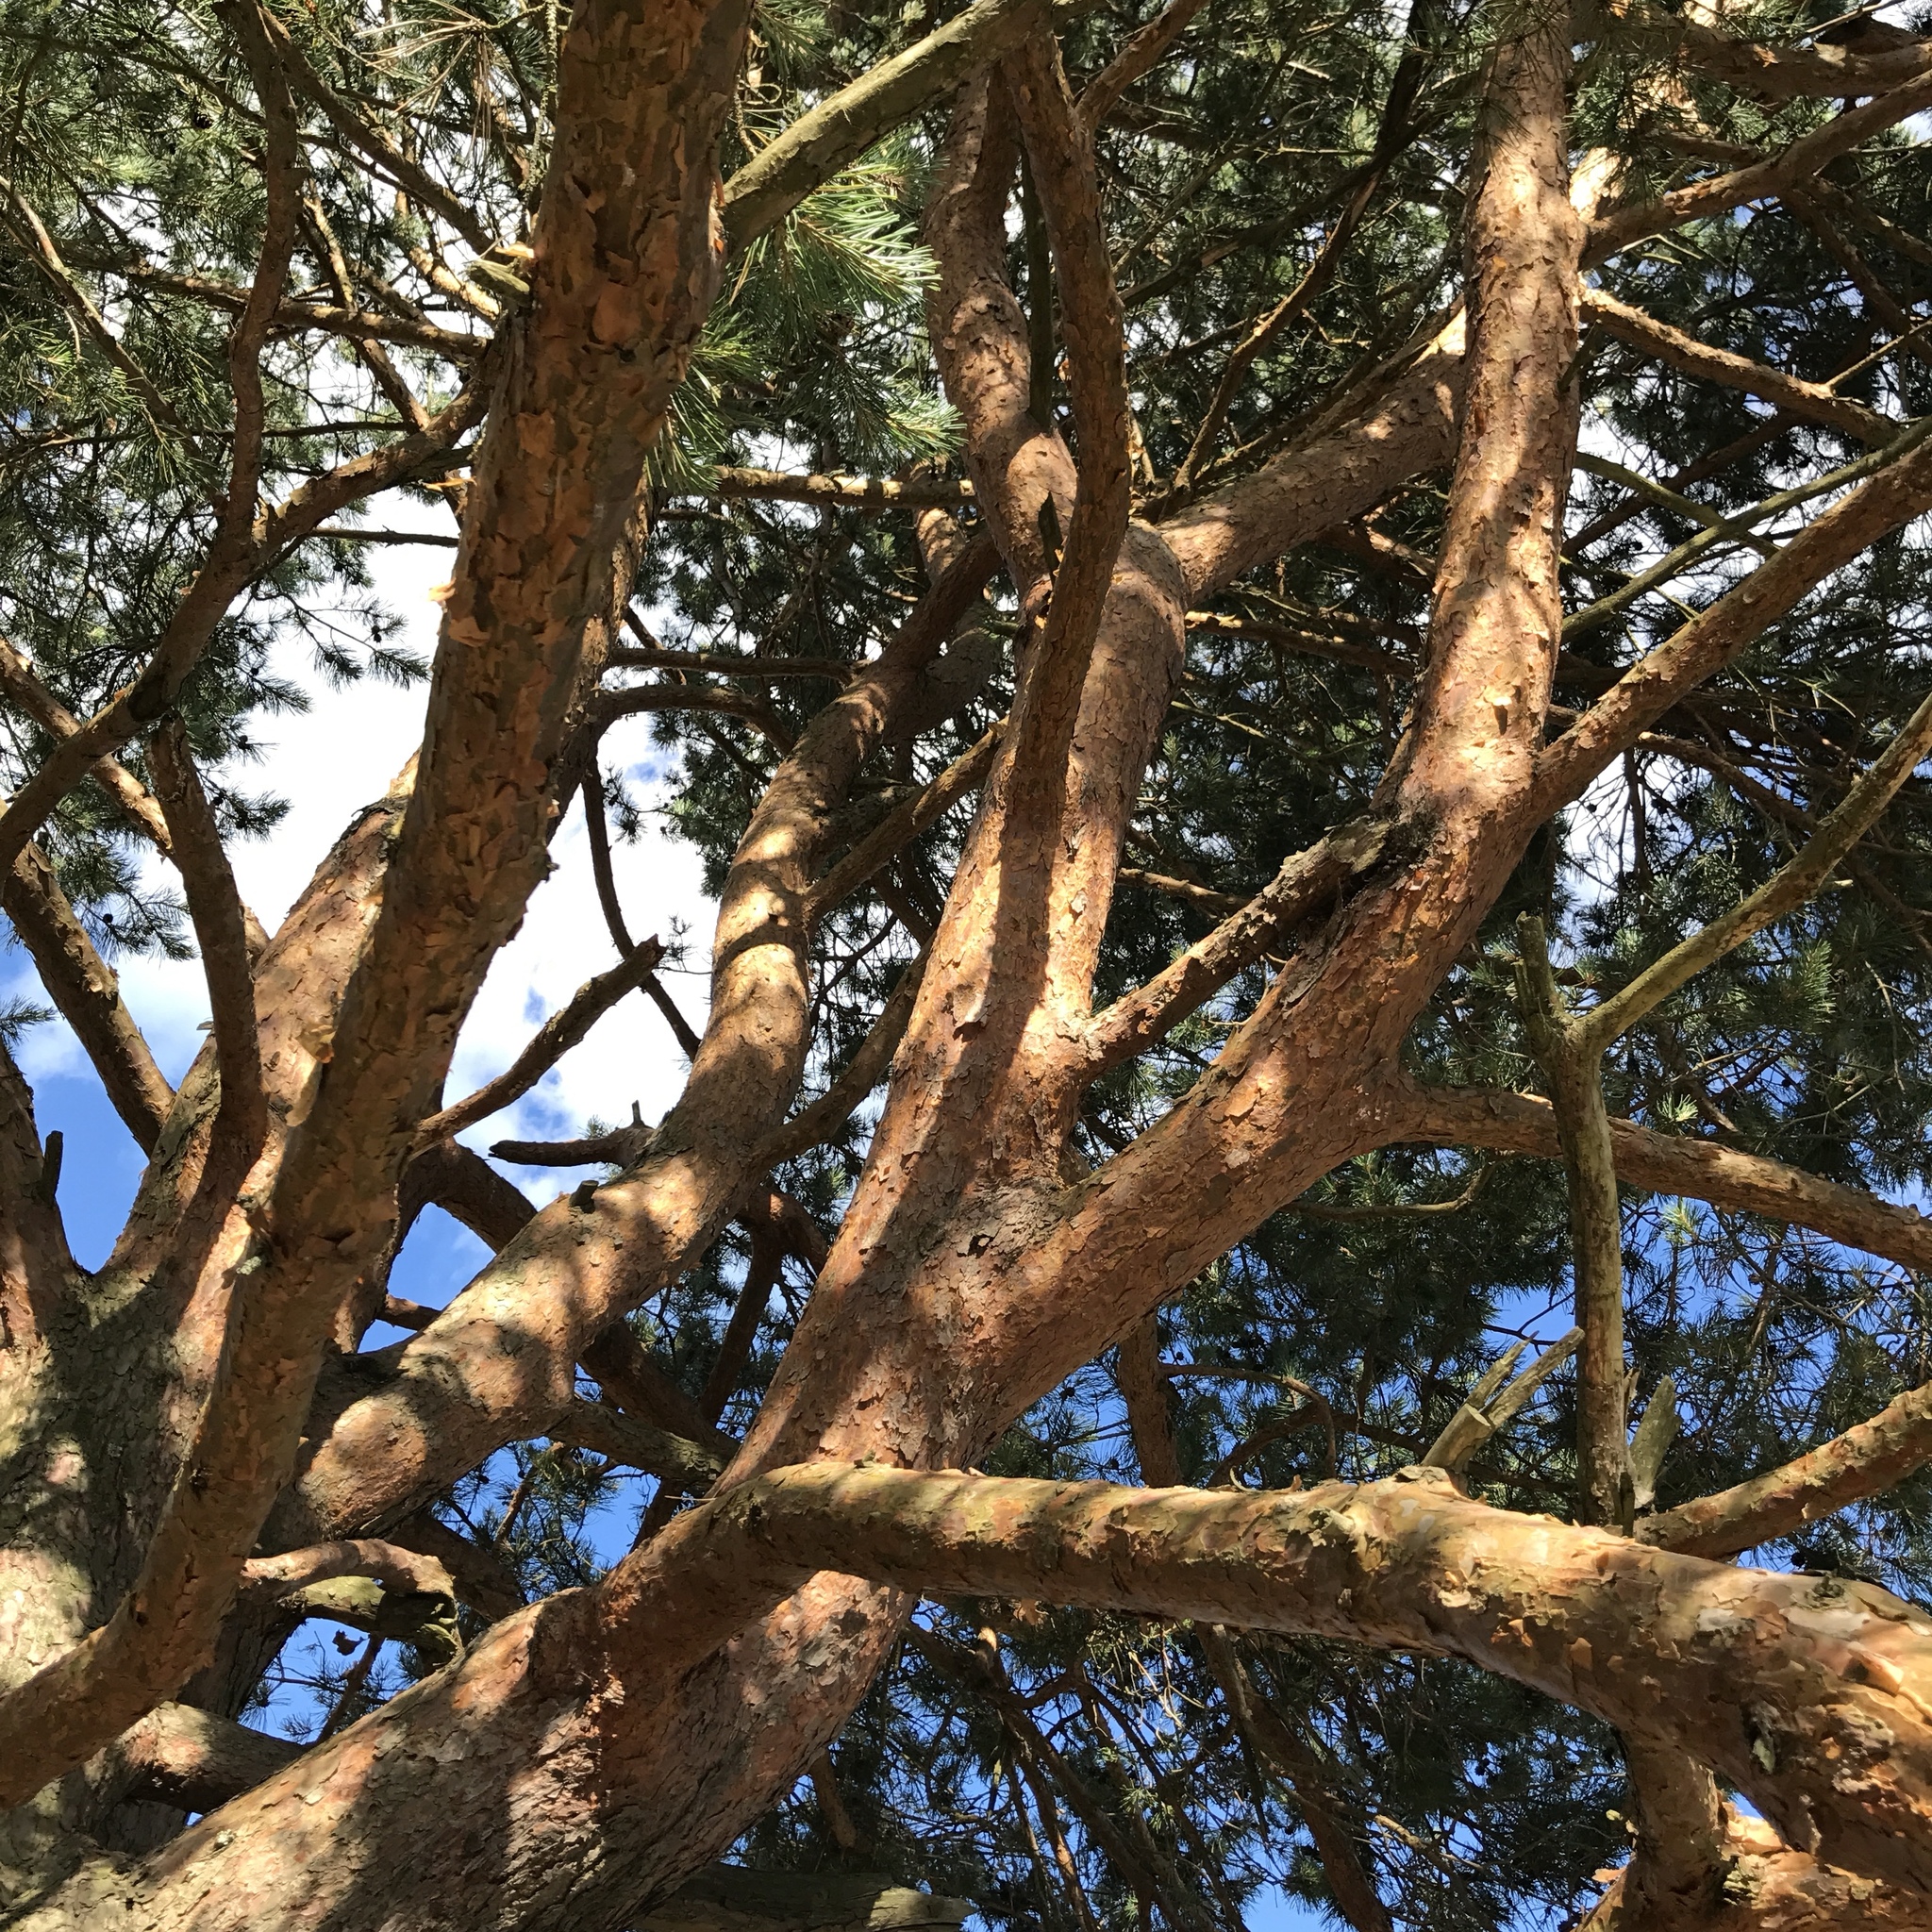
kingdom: Plantae
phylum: Tracheophyta
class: Pinopsida
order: Pinales
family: Pinaceae
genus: Pinus
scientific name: Pinus sylvestris
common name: Scots pine
